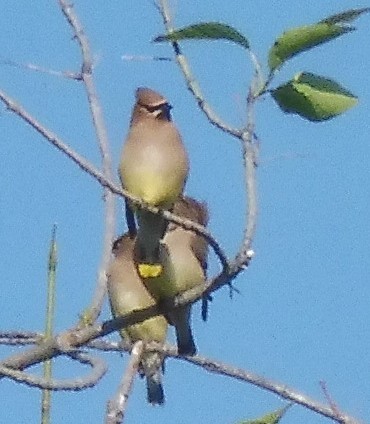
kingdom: Animalia
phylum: Chordata
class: Aves
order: Passeriformes
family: Bombycillidae
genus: Bombycilla
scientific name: Bombycilla cedrorum
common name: Cedar waxwing
